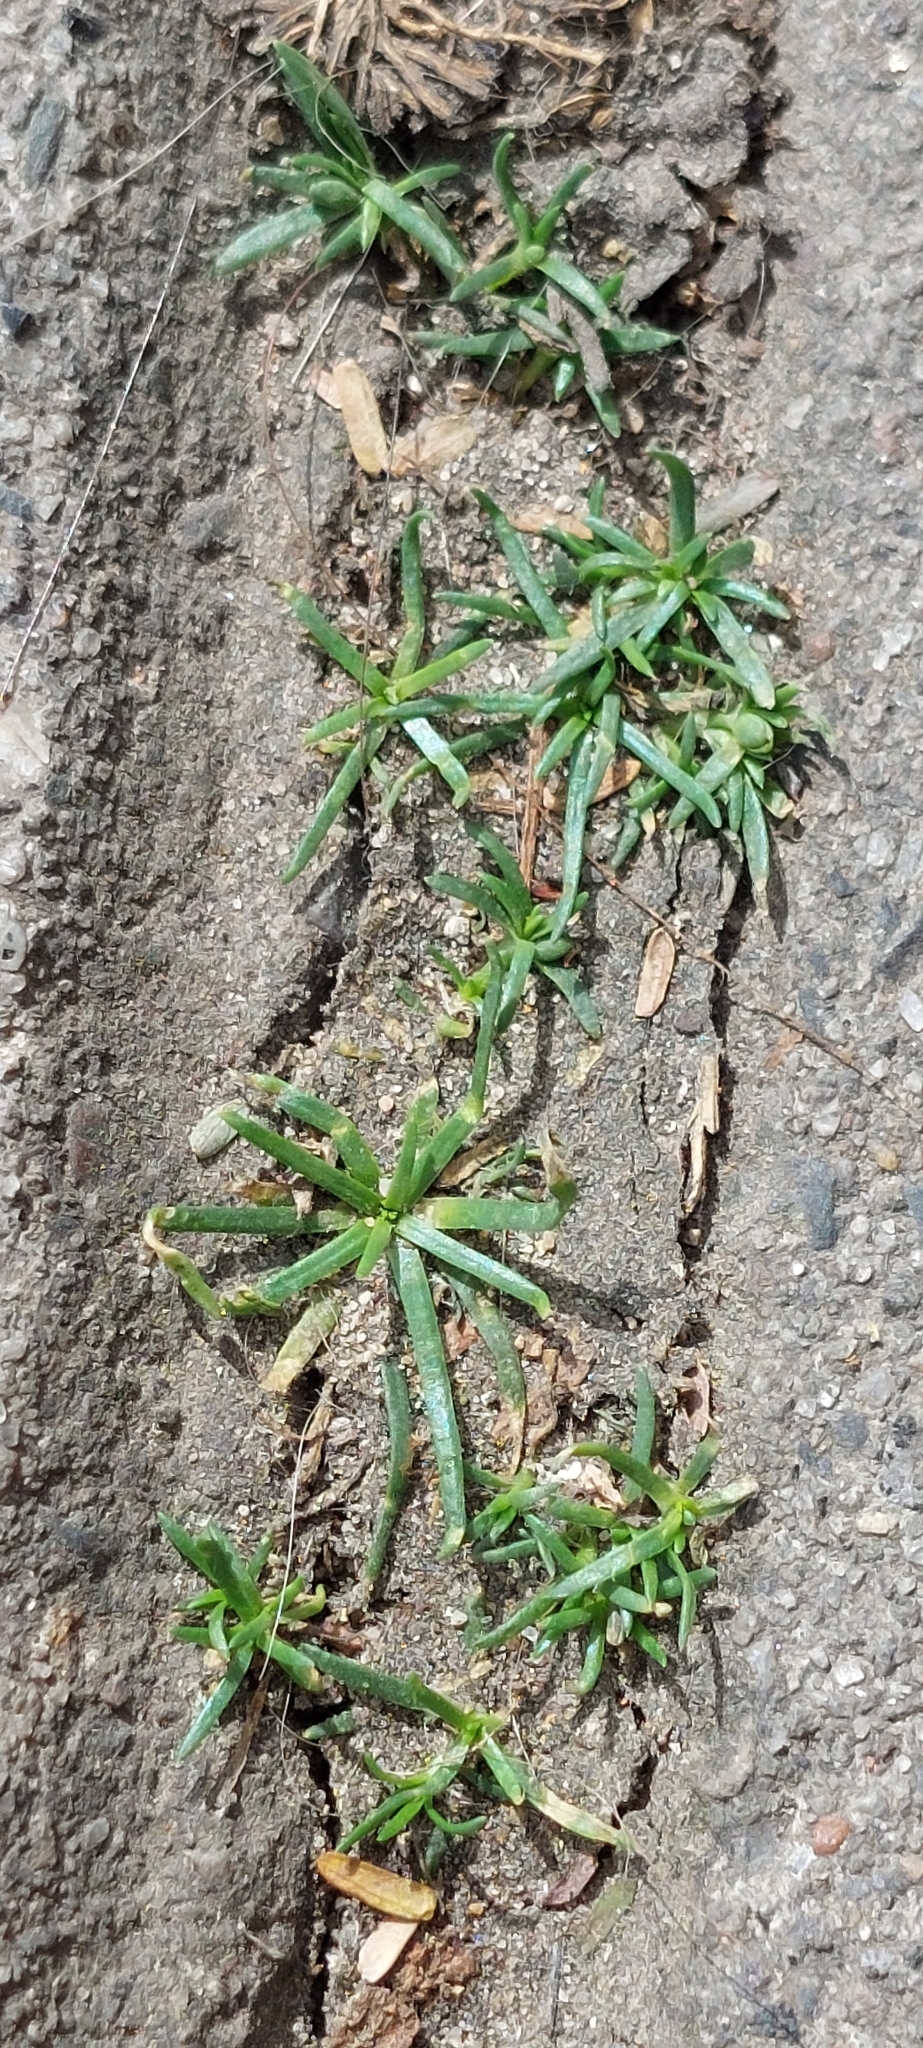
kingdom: Plantae
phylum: Tracheophyta
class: Magnoliopsida
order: Caryophyllales
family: Caryophyllaceae
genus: Sagina
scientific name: Sagina procumbens
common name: Procumbent pearlwort
